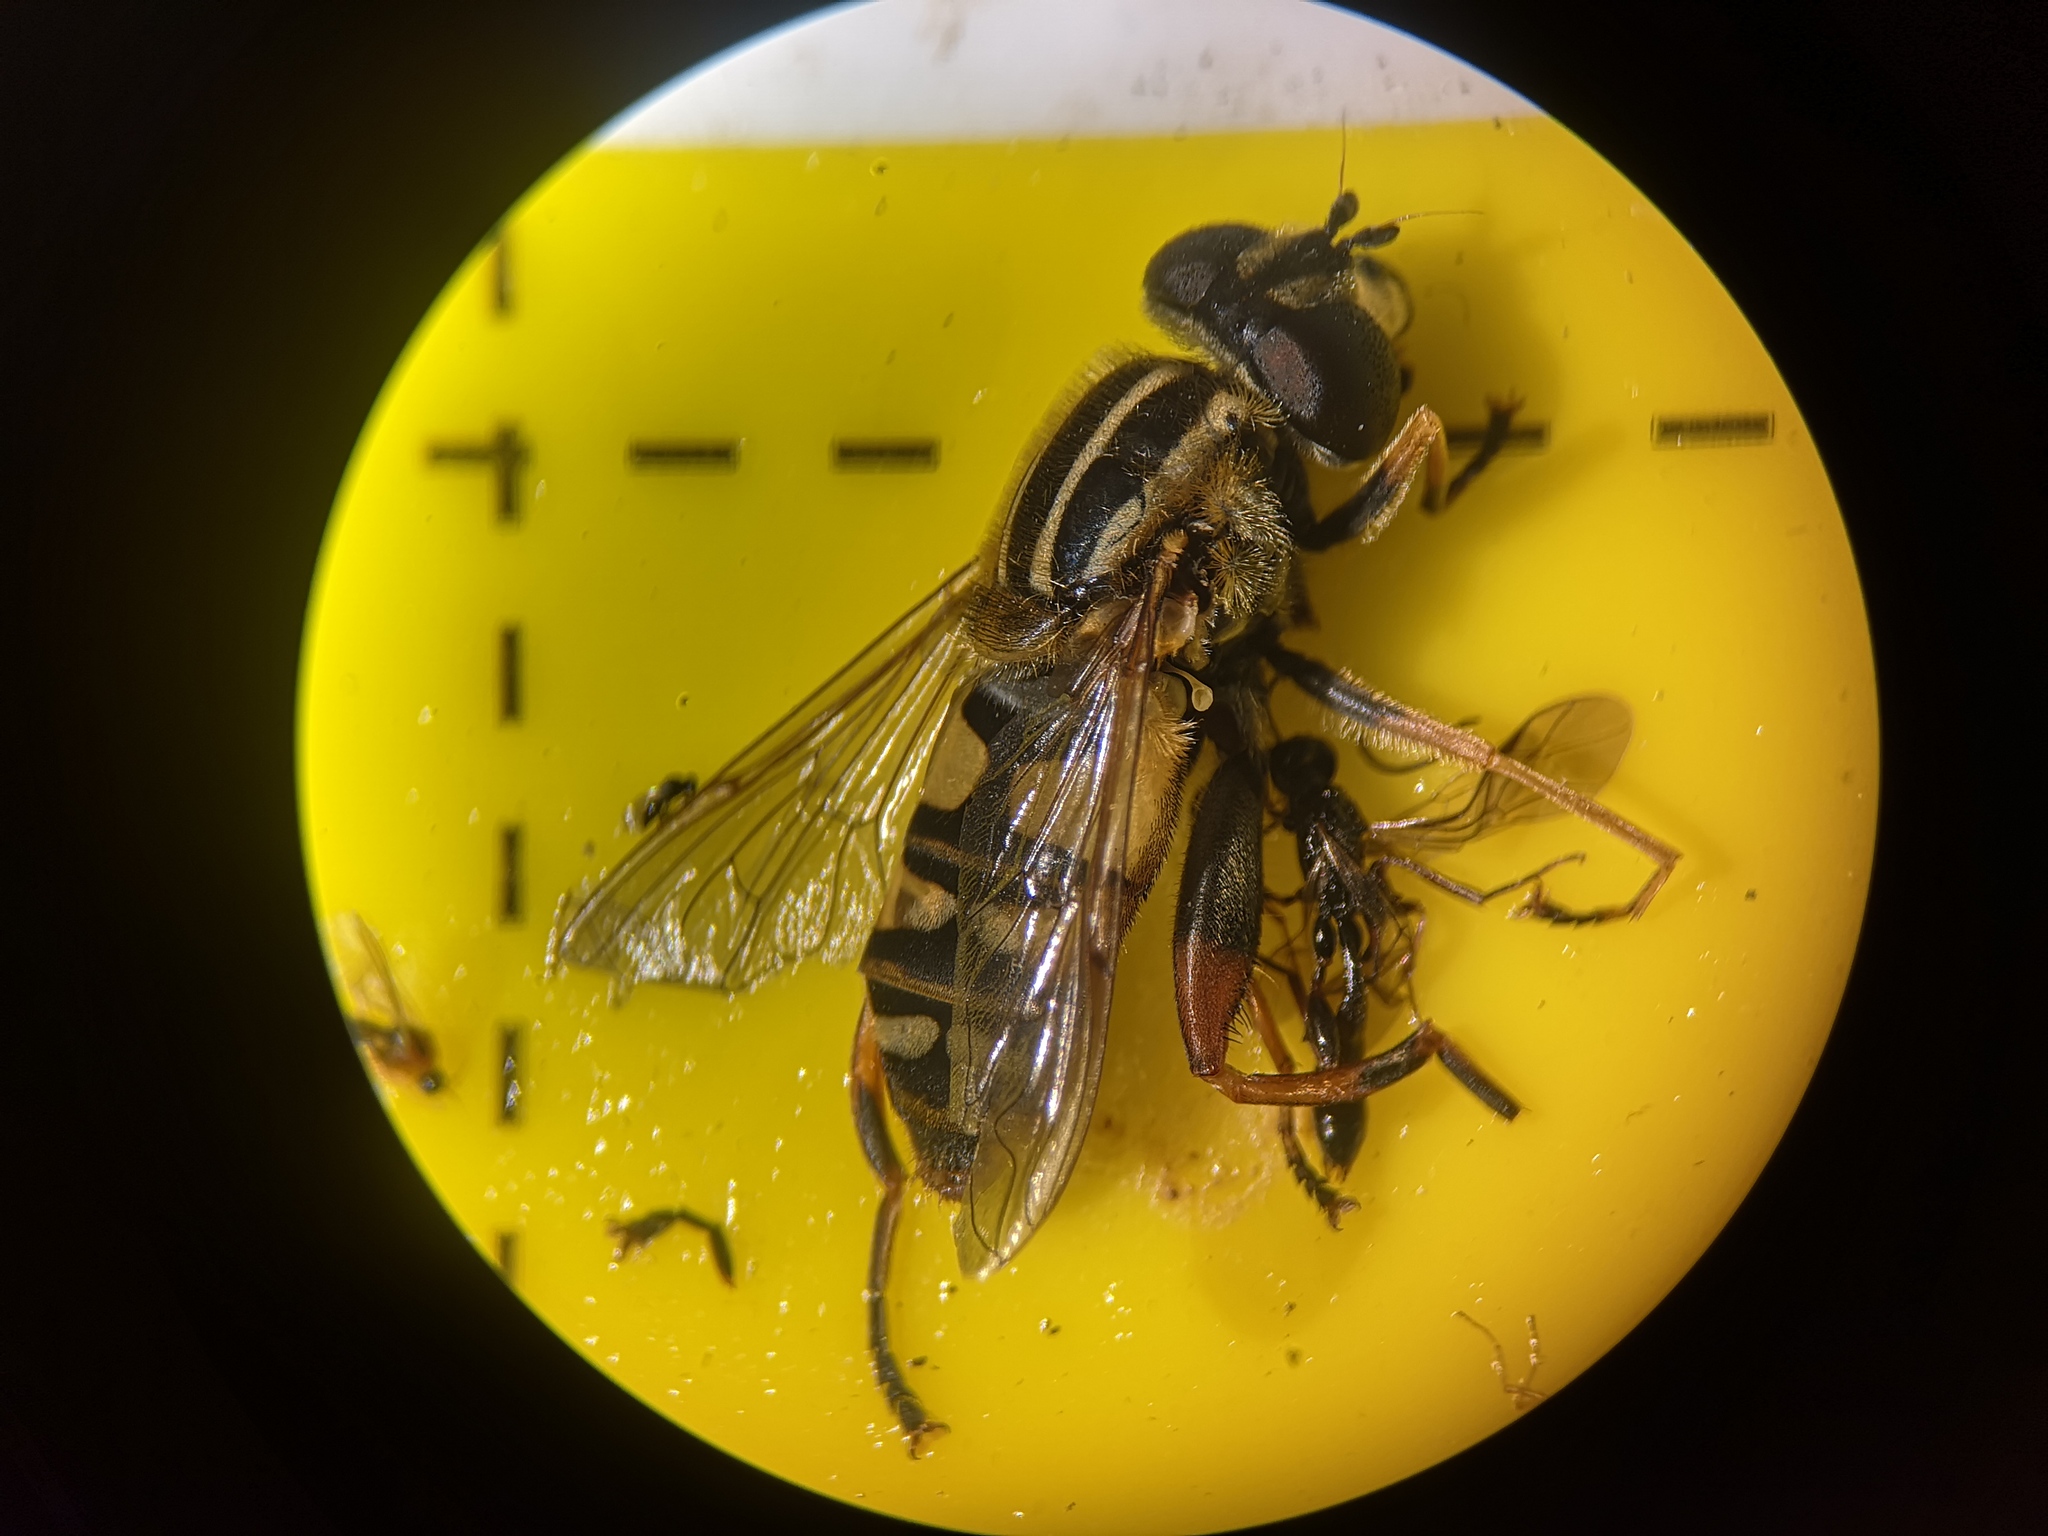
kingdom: Animalia
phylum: Arthropoda
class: Insecta
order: Diptera
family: Syrphidae
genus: Helophilus
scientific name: Helophilus pendulus
